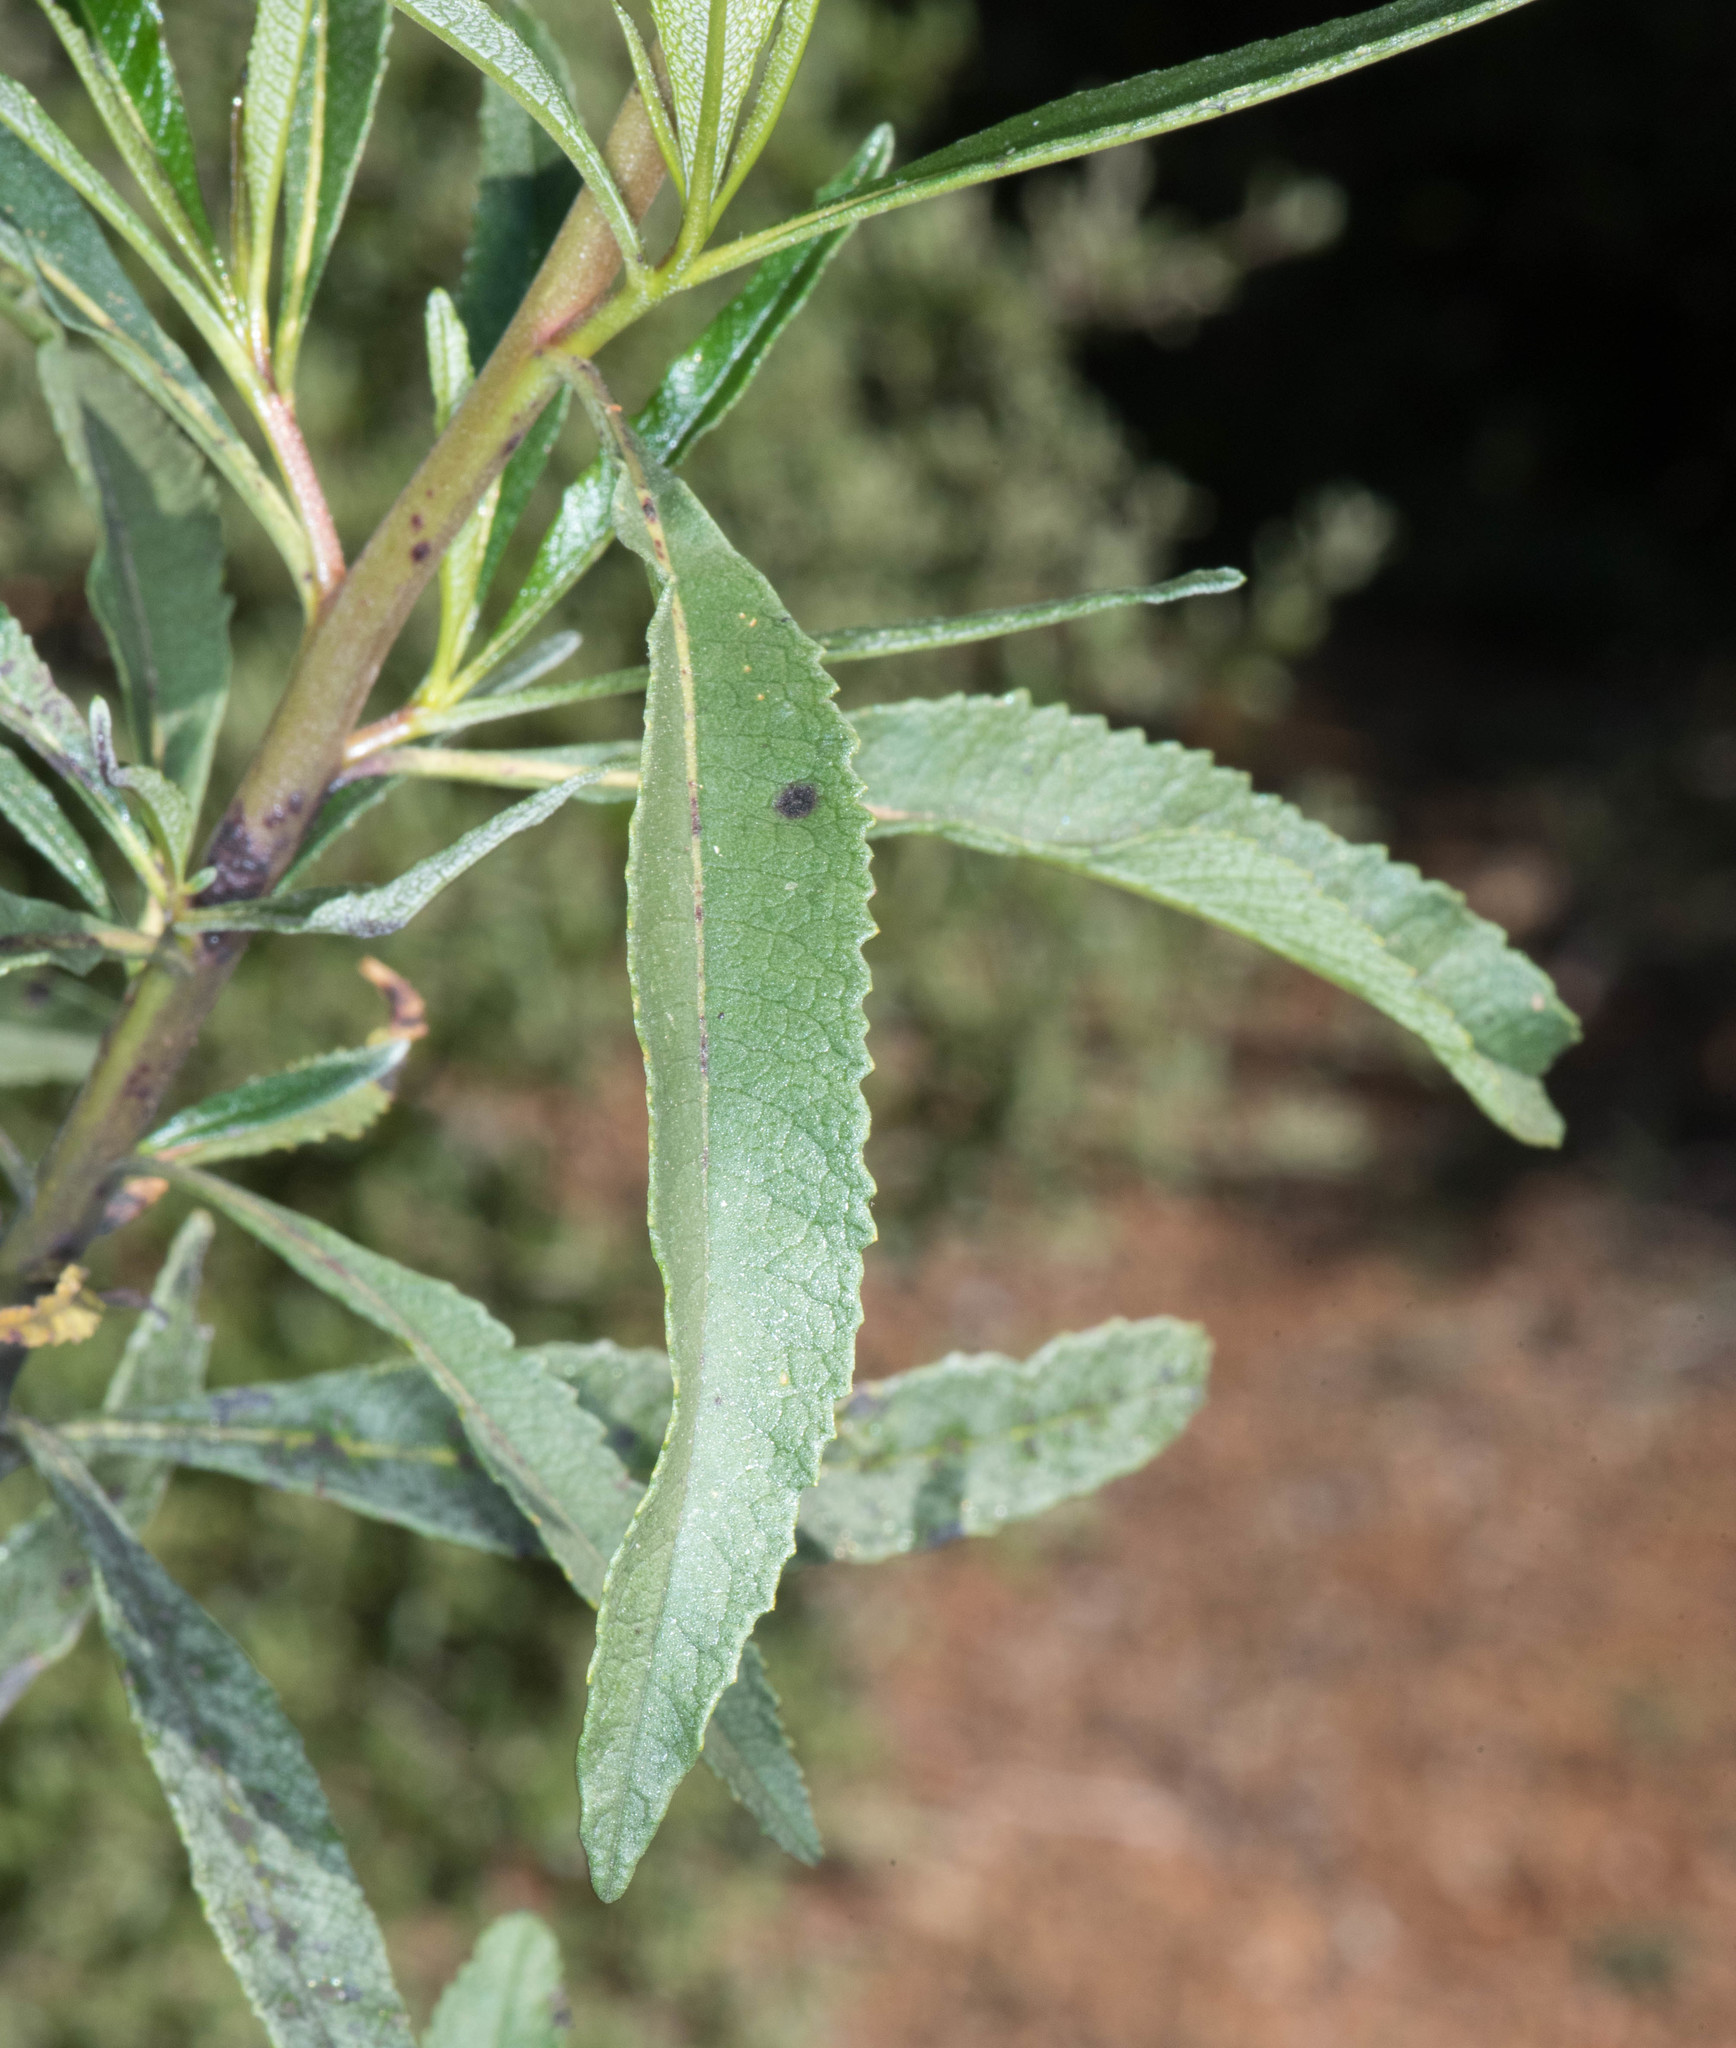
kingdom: Plantae
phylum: Tracheophyta
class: Magnoliopsida
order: Boraginales
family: Namaceae
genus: Eriodictyon
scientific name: Eriodictyon californicum
